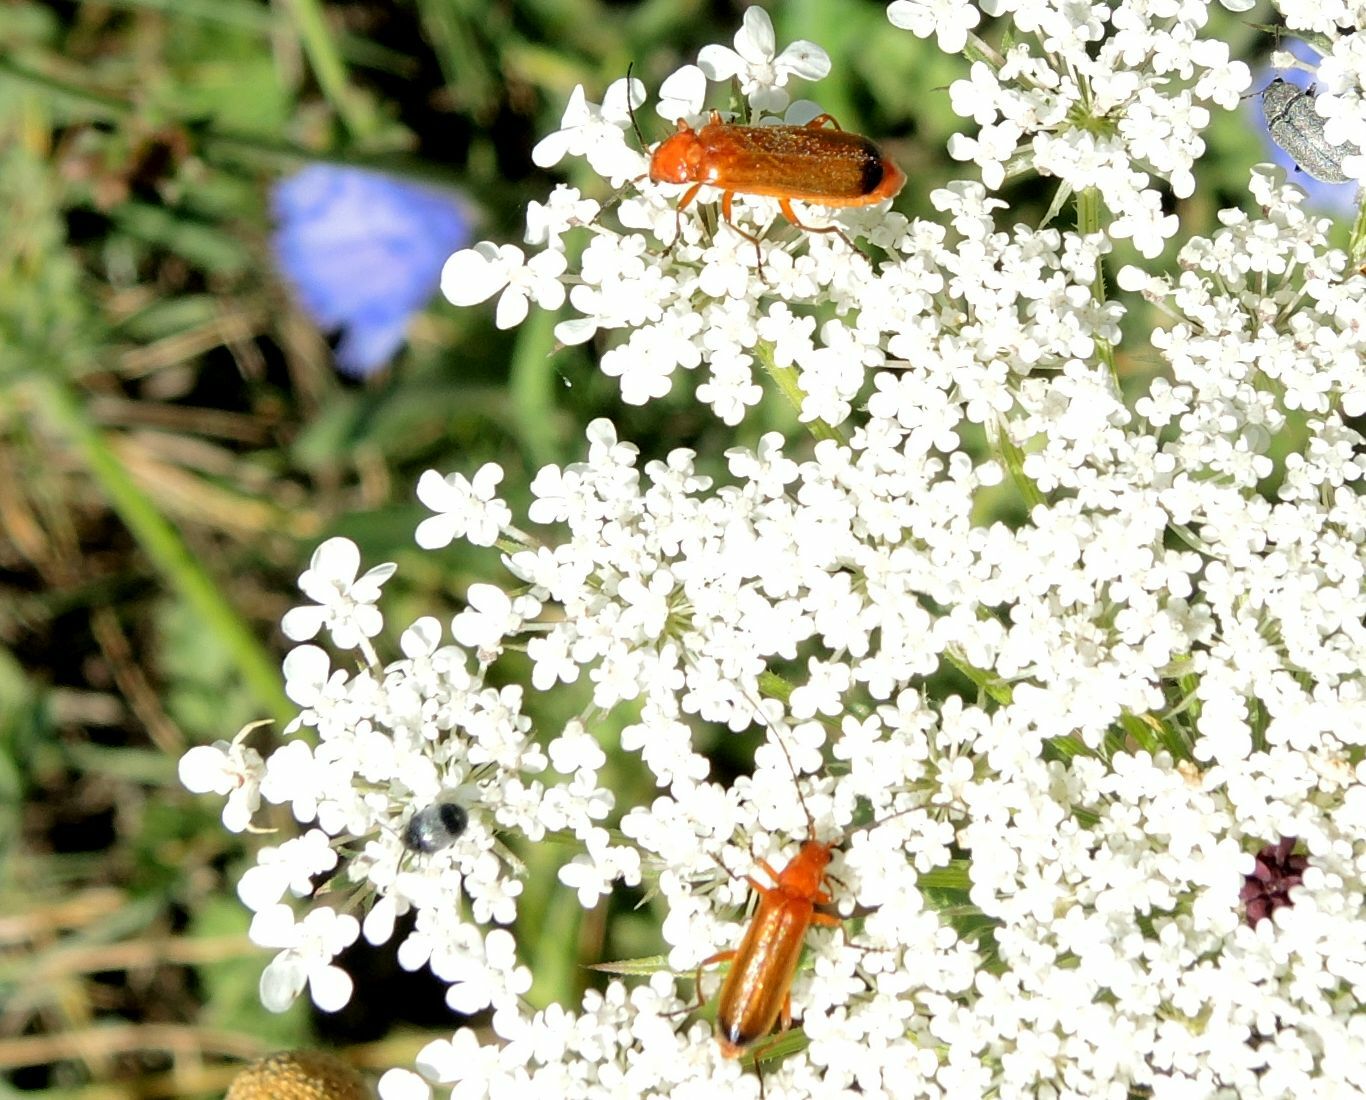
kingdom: Animalia
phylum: Arthropoda
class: Insecta
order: Coleoptera
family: Cantharidae
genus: Rhagonycha
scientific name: Rhagonycha fulva
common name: Common red soldier beetle
